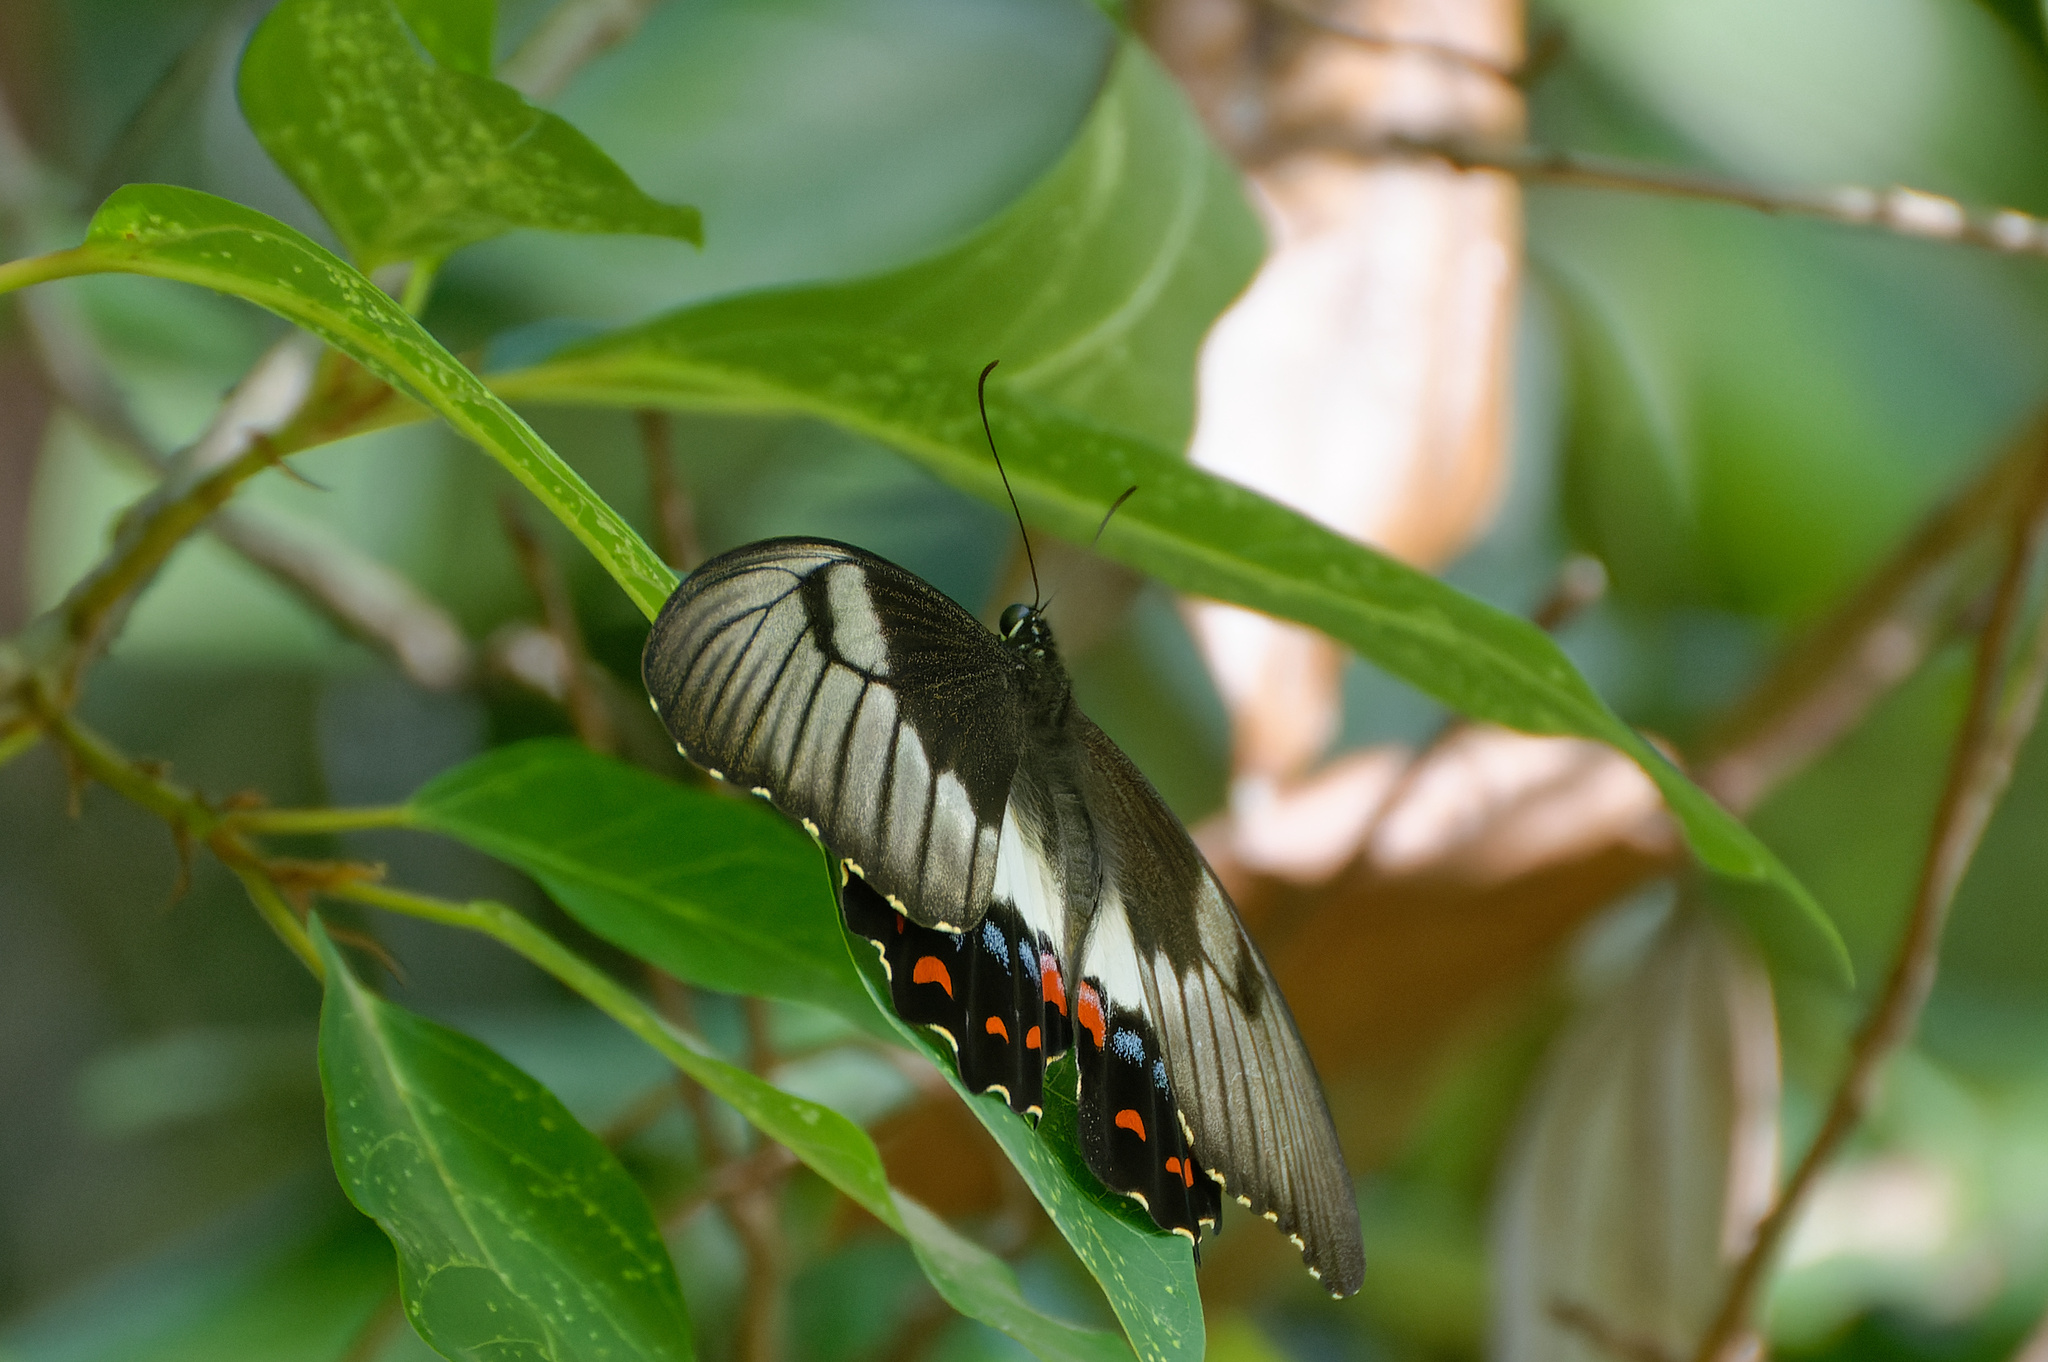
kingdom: Animalia
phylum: Arthropoda
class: Insecta
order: Lepidoptera
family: Papilionidae
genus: Papilio
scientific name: Papilio aegeus
